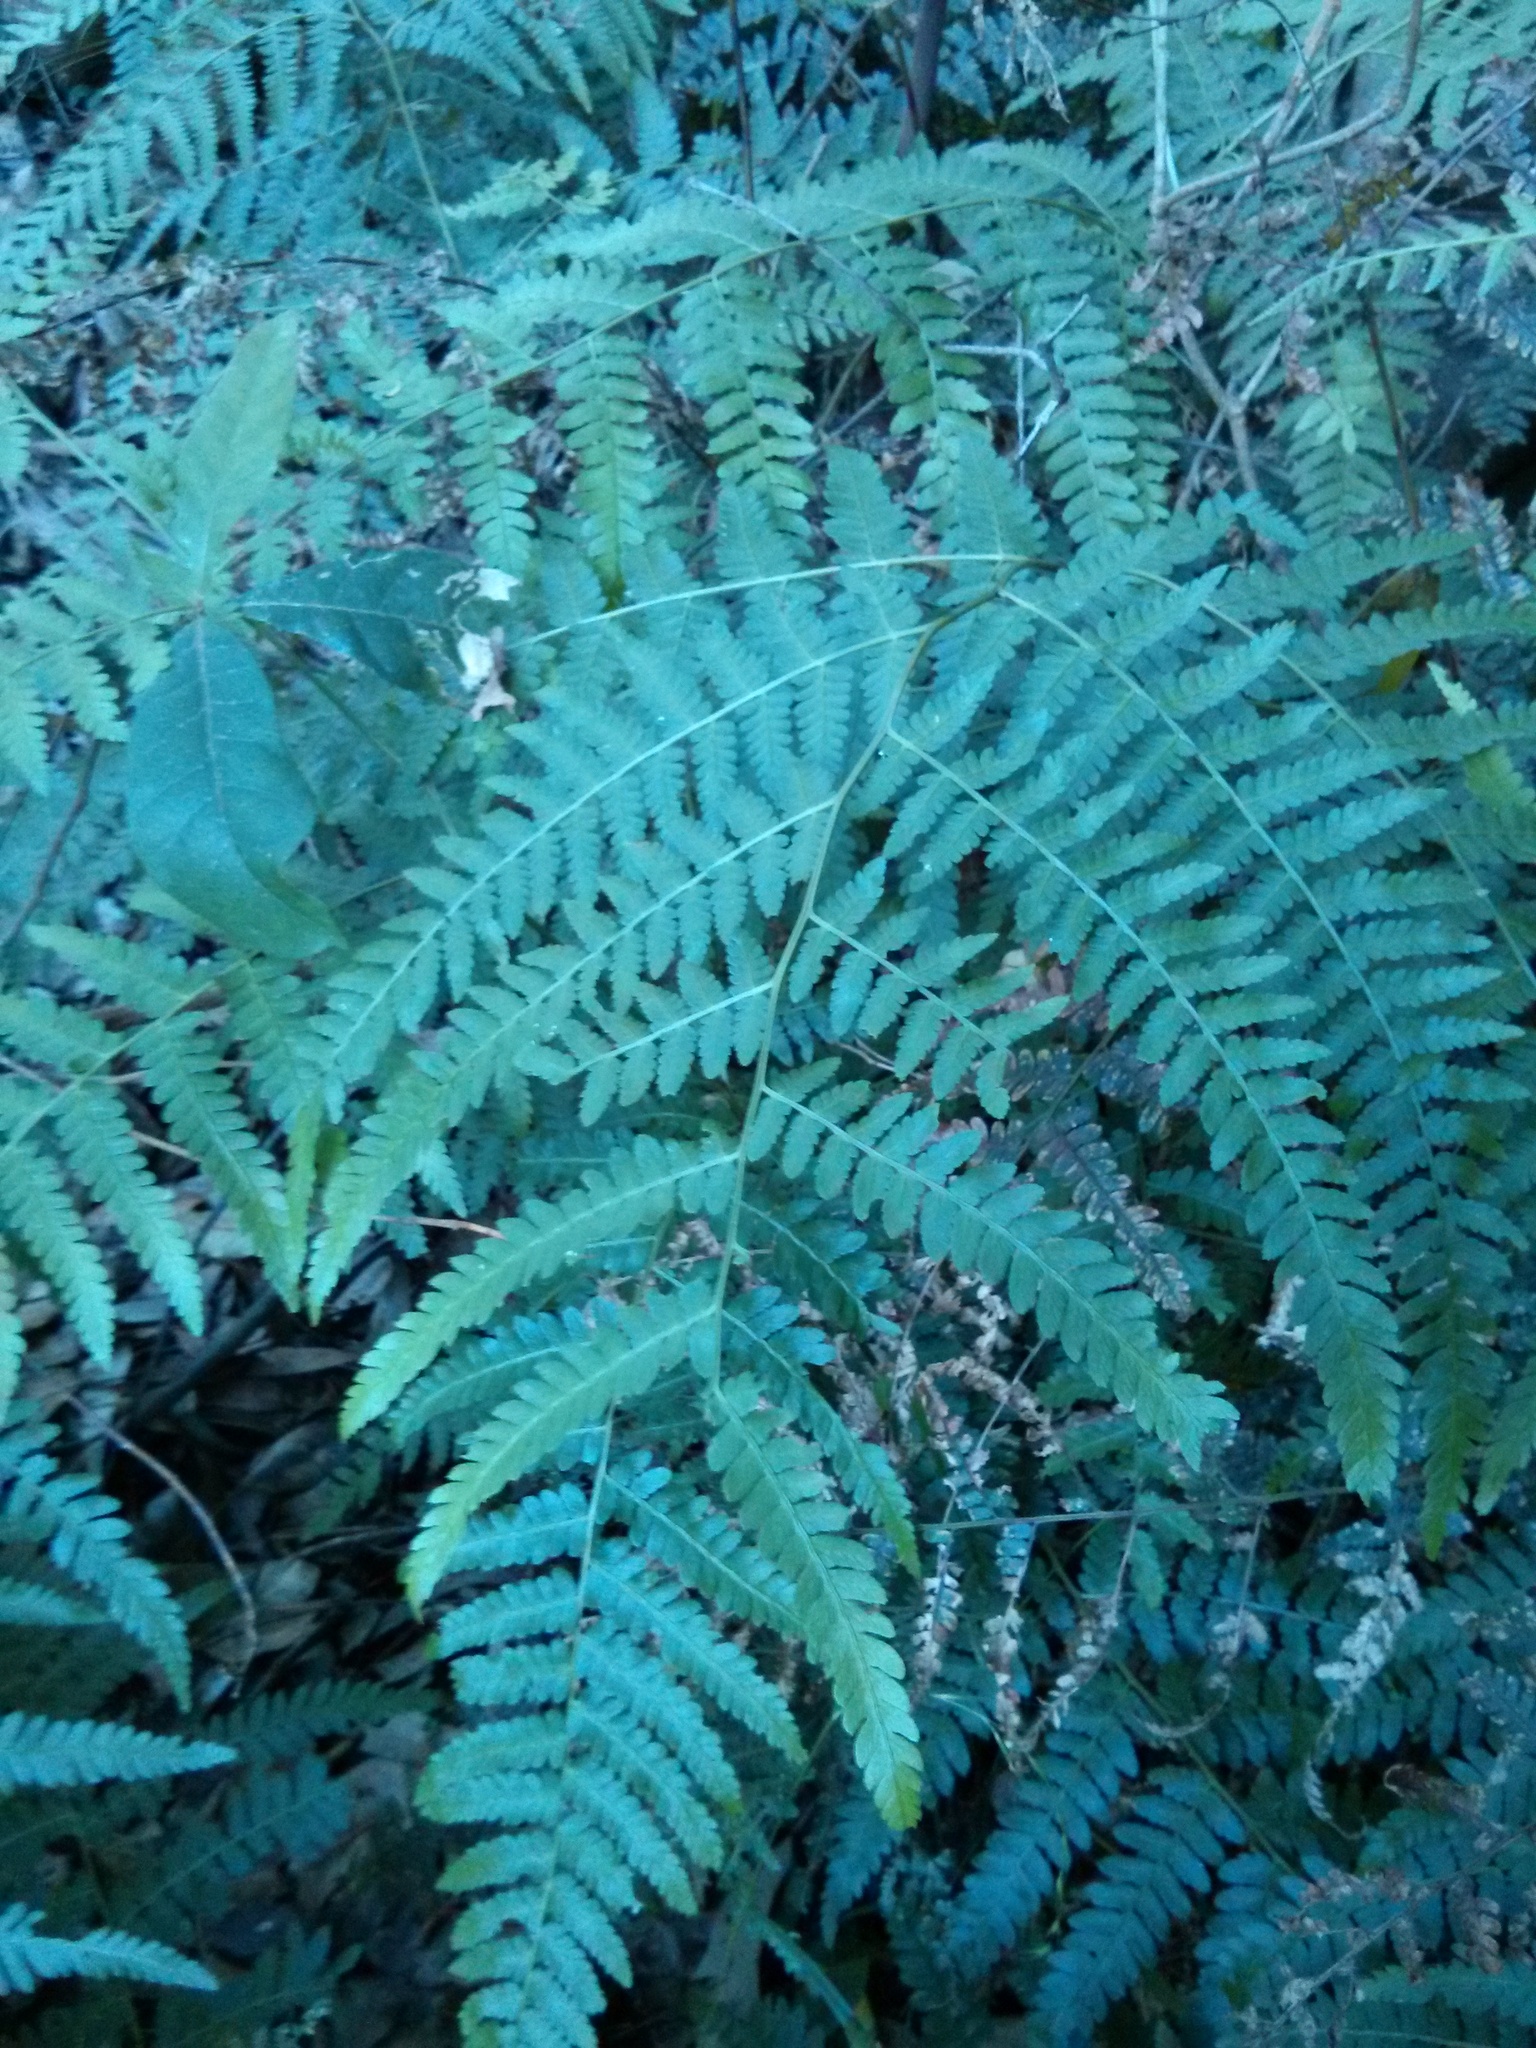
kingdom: Plantae
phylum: Tracheophyta
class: Polypodiopsida
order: Polypodiales
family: Dennstaedtiaceae
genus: Hypolepis
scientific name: Hypolepis muelleri
